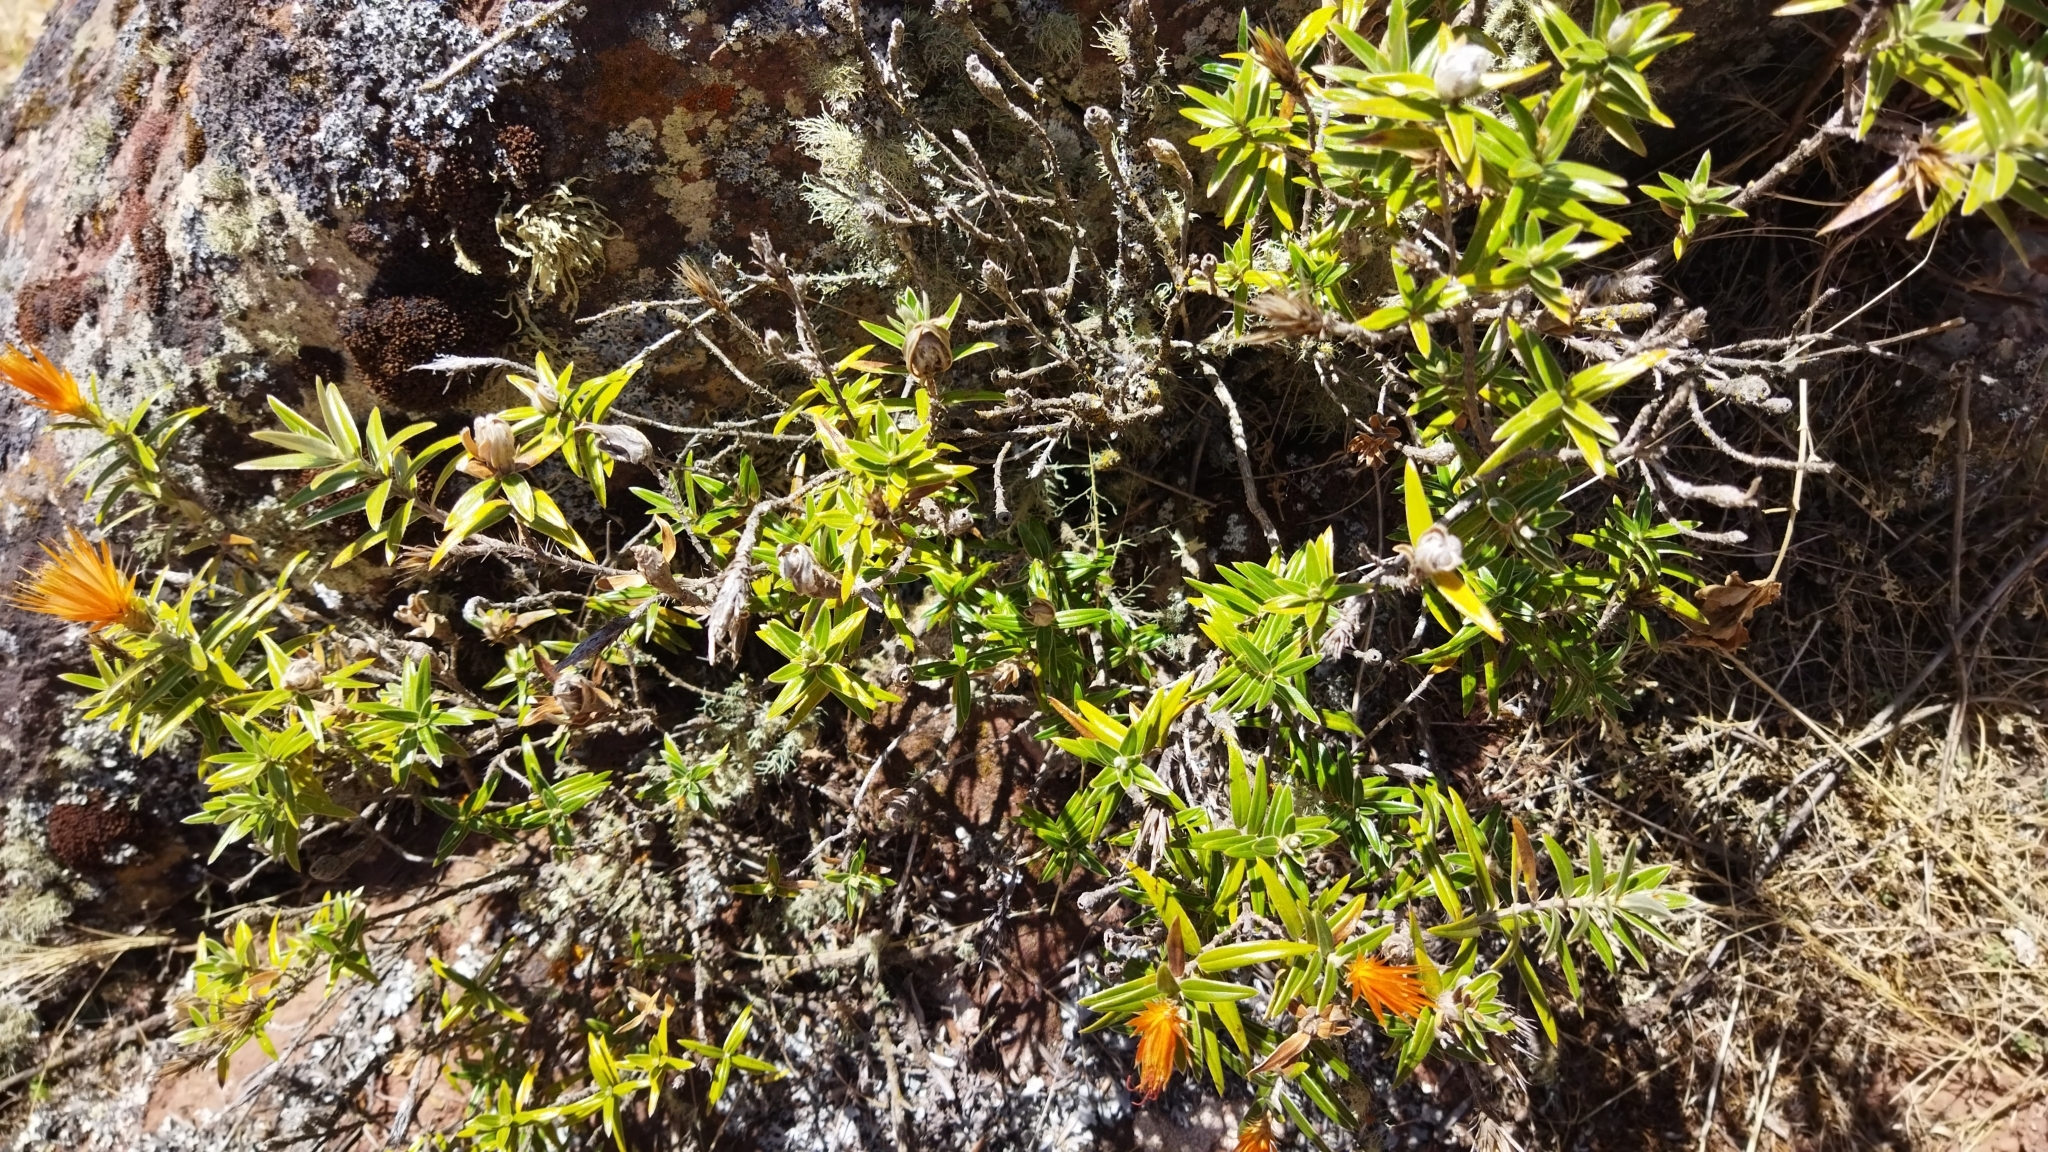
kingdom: Plantae
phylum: Tracheophyta
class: Magnoliopsida
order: Asterales
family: Asteraceae
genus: Chuquiraga
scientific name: Chuquiraga longiflora
